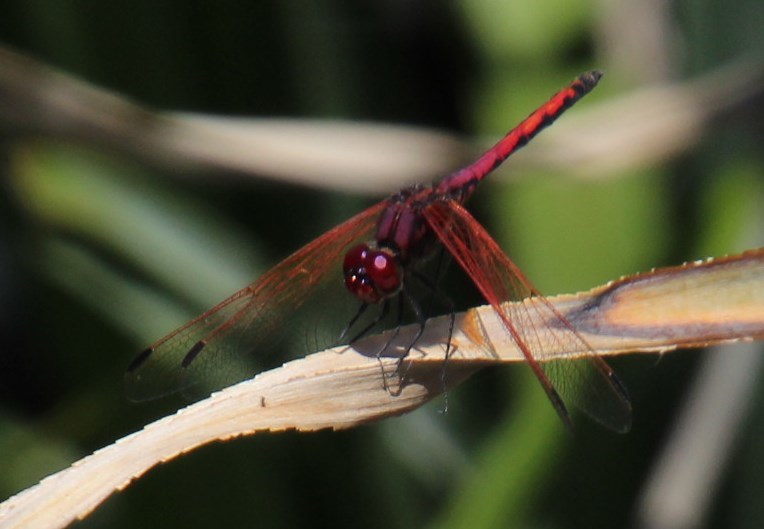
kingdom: Animalia
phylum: Arthropoda
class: Insecta
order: Odonata
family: Libellulidae
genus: Trithemis
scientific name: Trithemis arteriosa
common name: Red-veined dropwing
